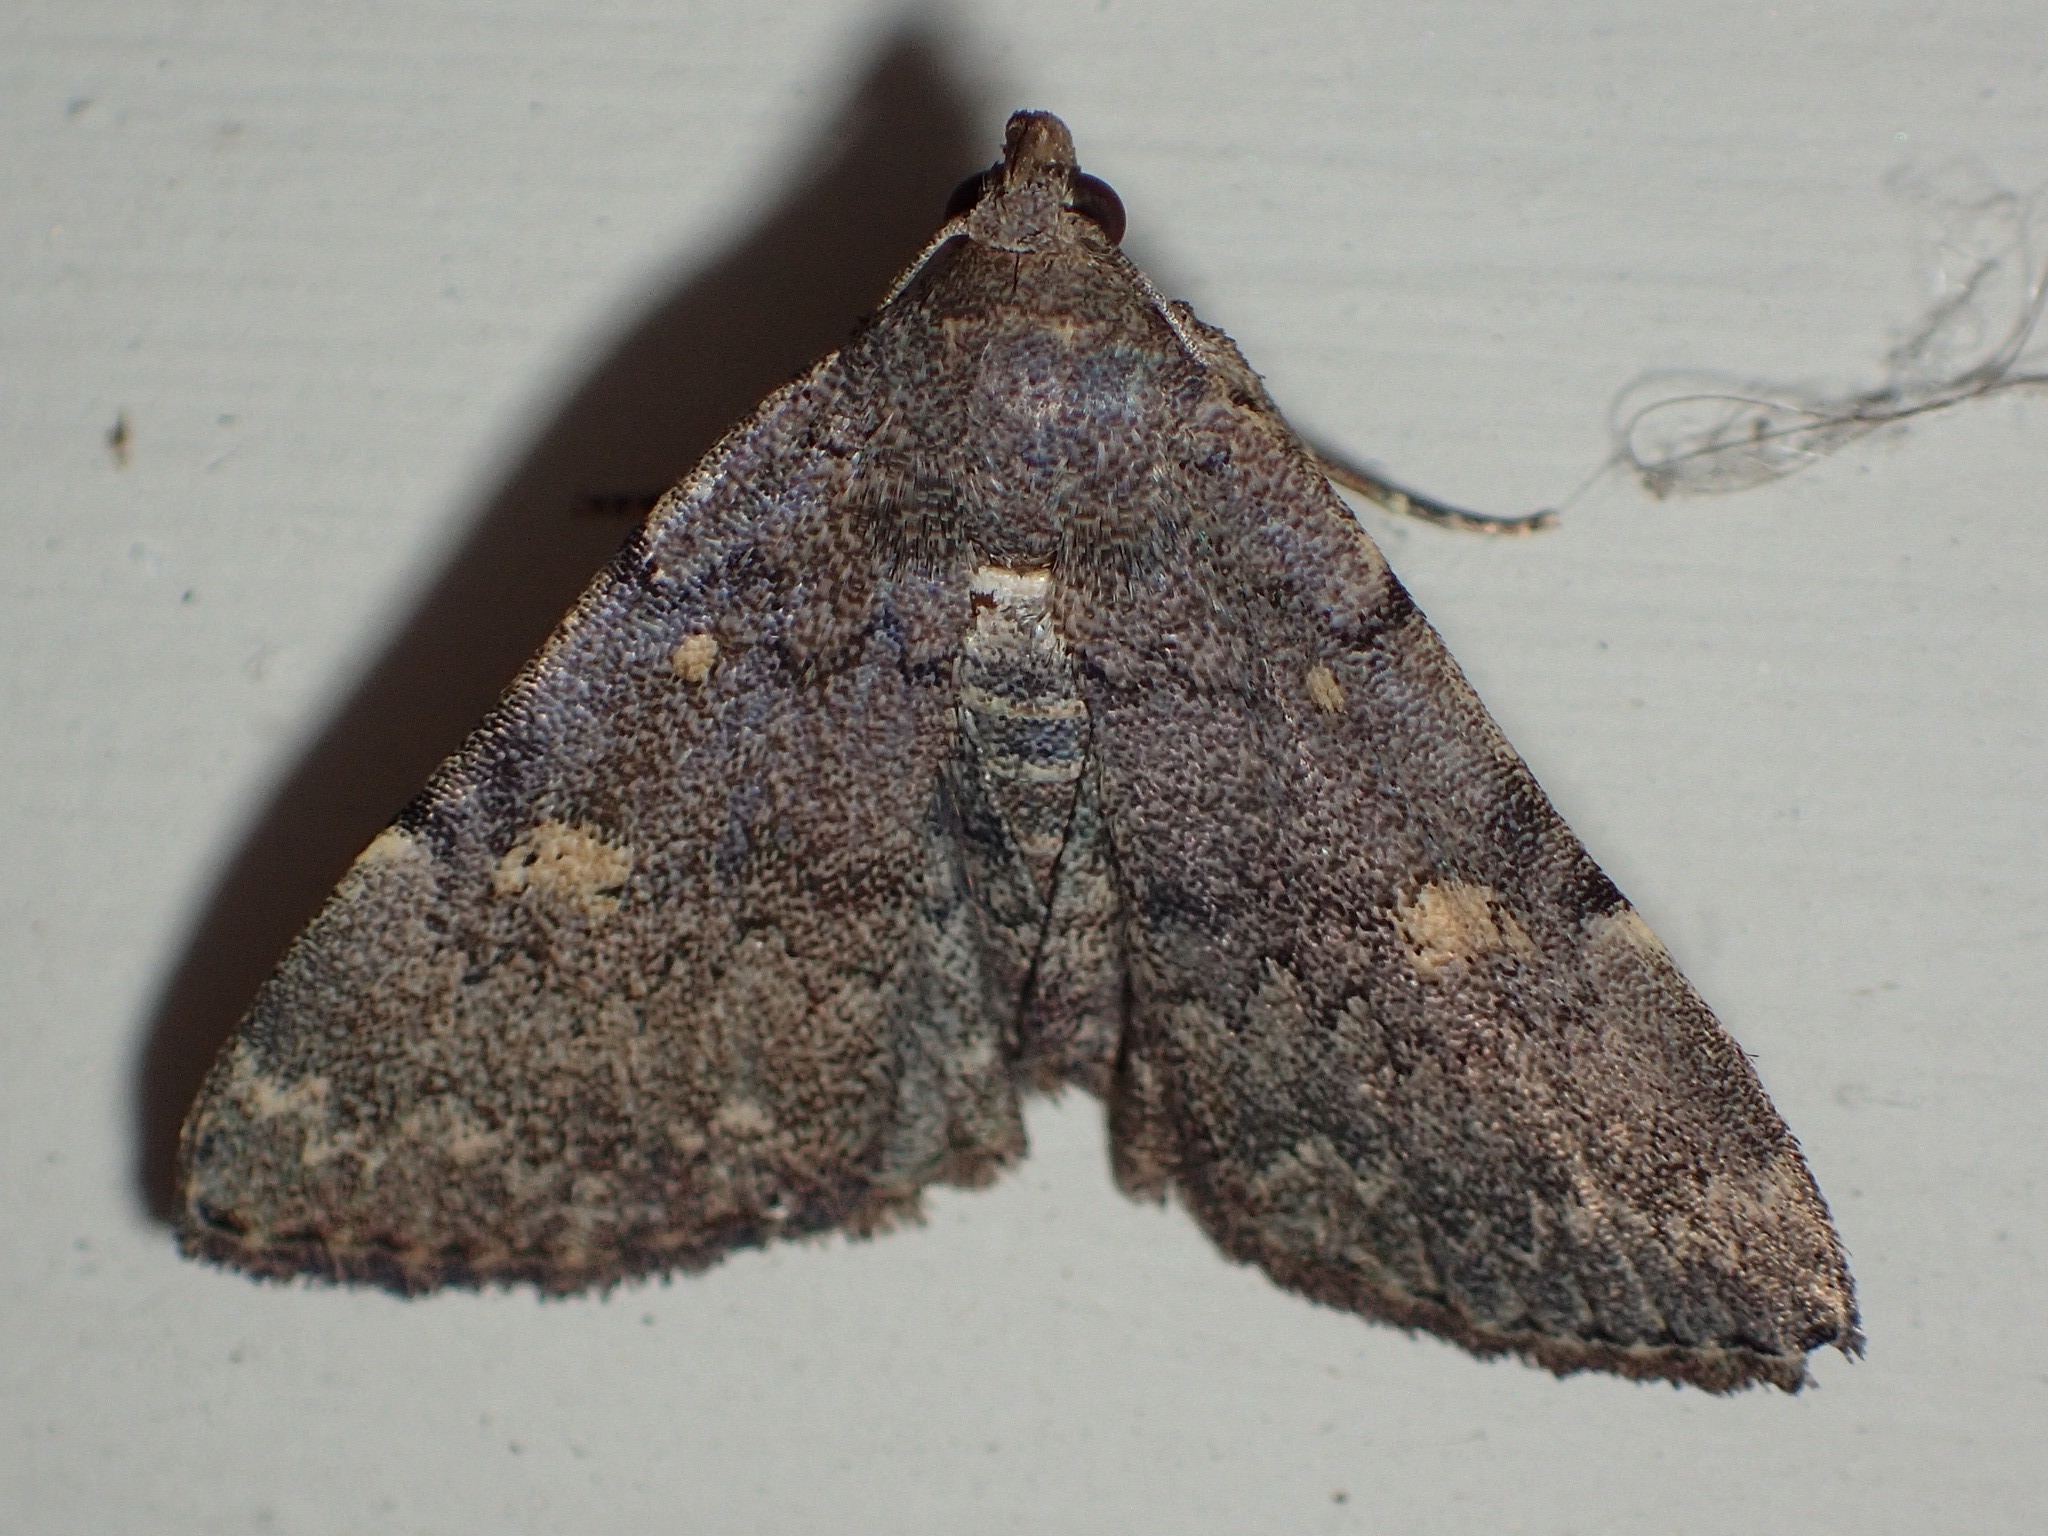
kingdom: Animalia
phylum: Arthropoda
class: Insecta
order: Lepidoptera
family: Erebidae
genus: Idia
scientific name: Idia aemula
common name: Common idia moth
